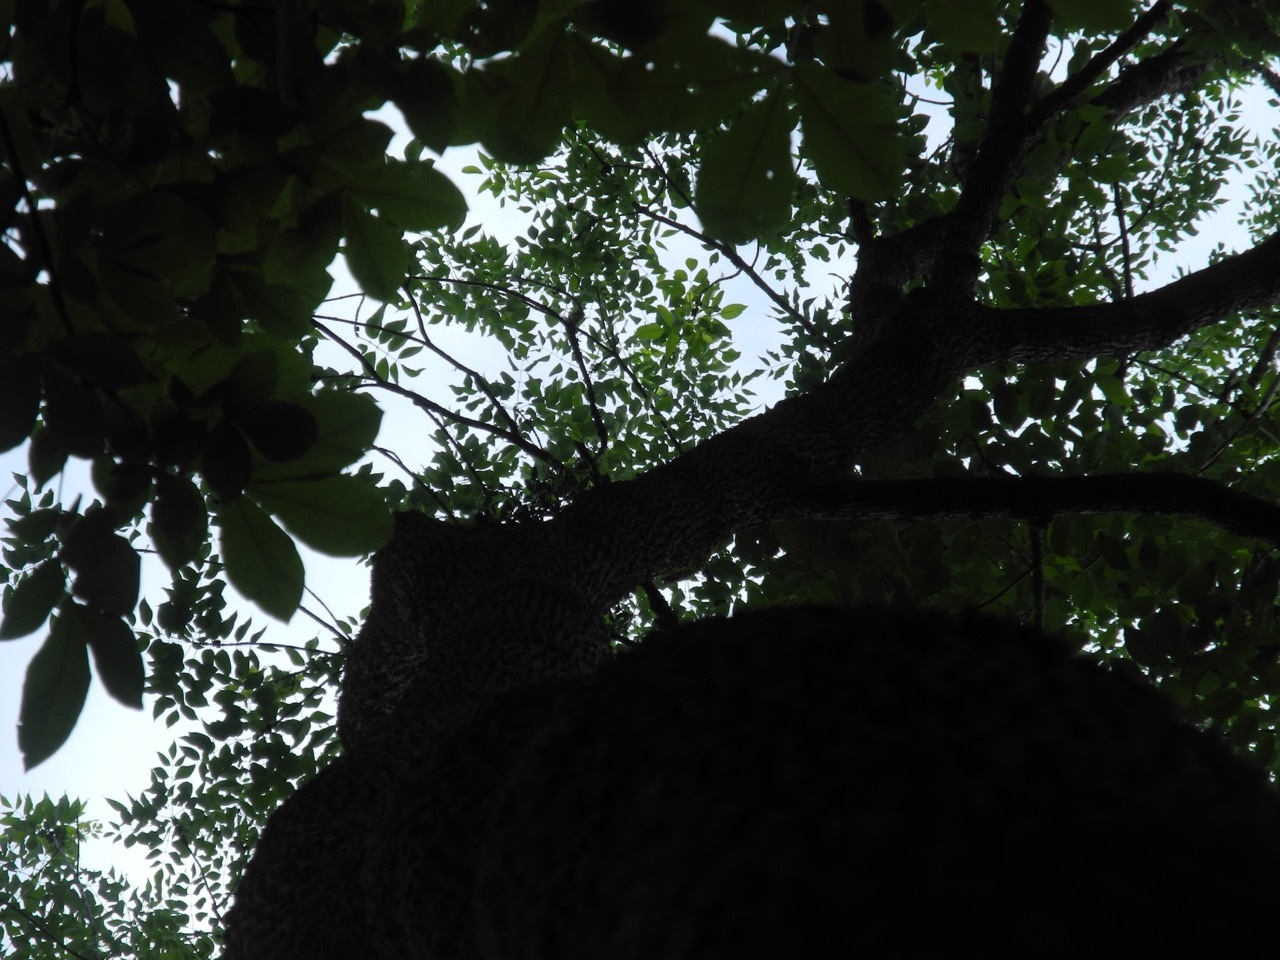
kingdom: Plantae
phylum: Tracheophyta
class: Magnoliopsida
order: Lamiales
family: Oleaceae
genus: Fraxinus
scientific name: Fraxinus americana
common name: White ash
